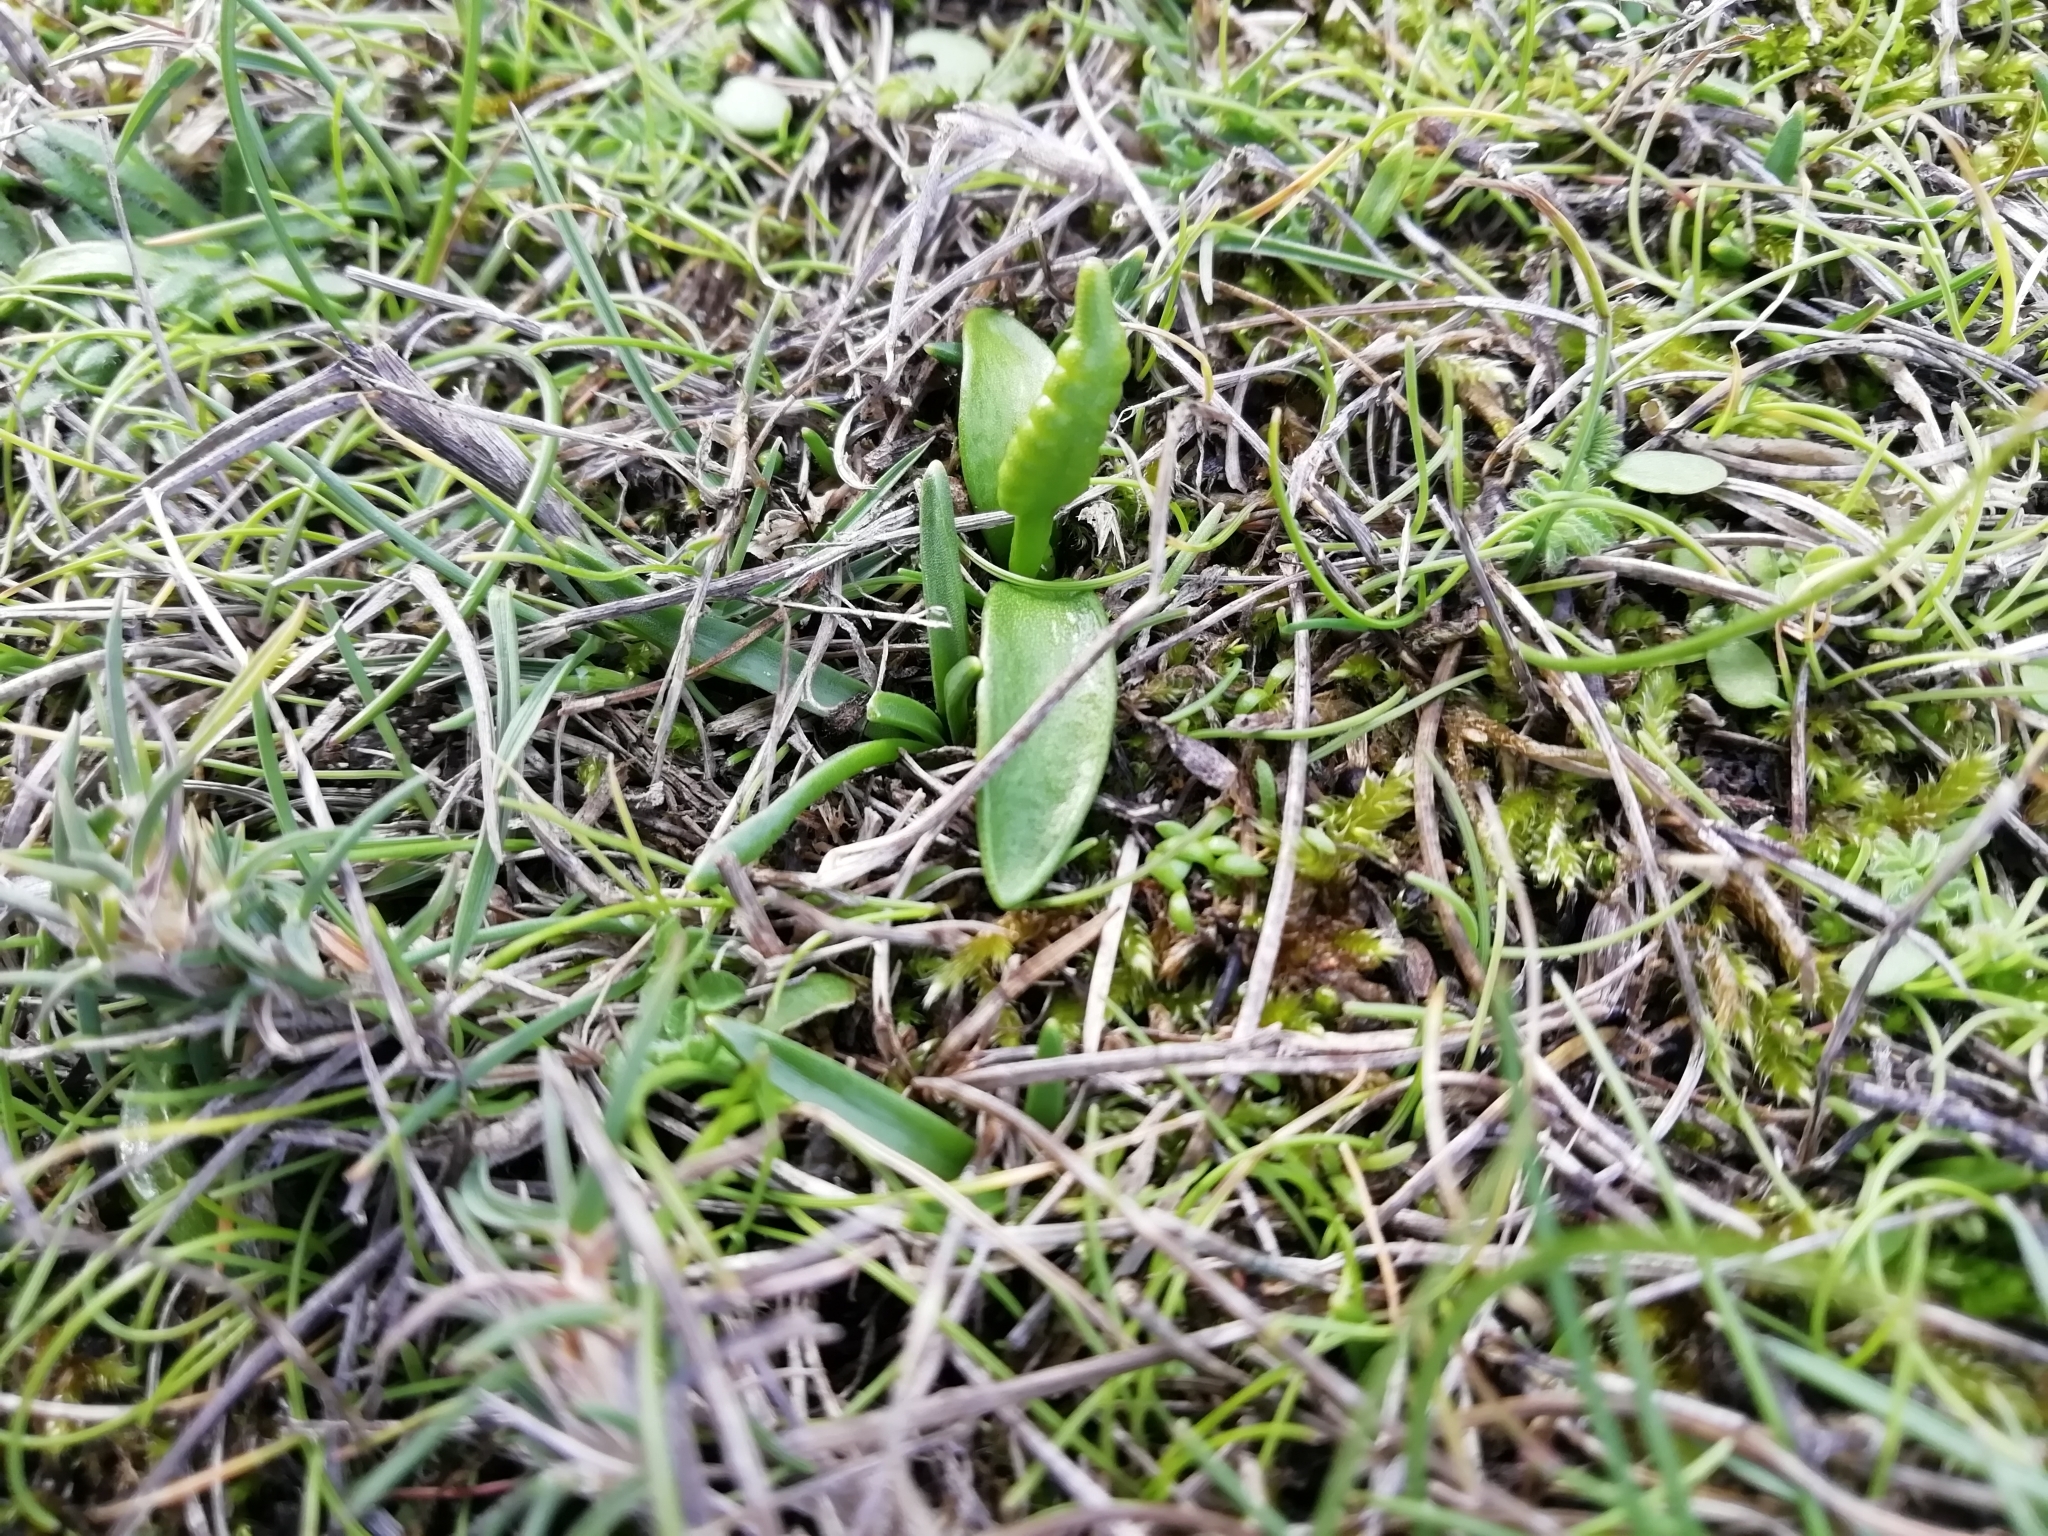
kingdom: Plantae
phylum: Tracheophyta
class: Polypodiopsida
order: Ophioglossales
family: Ophioglossaceae
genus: Ophioglossum
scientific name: Ophioglossum lusitanicum
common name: Least adder's-tongue
